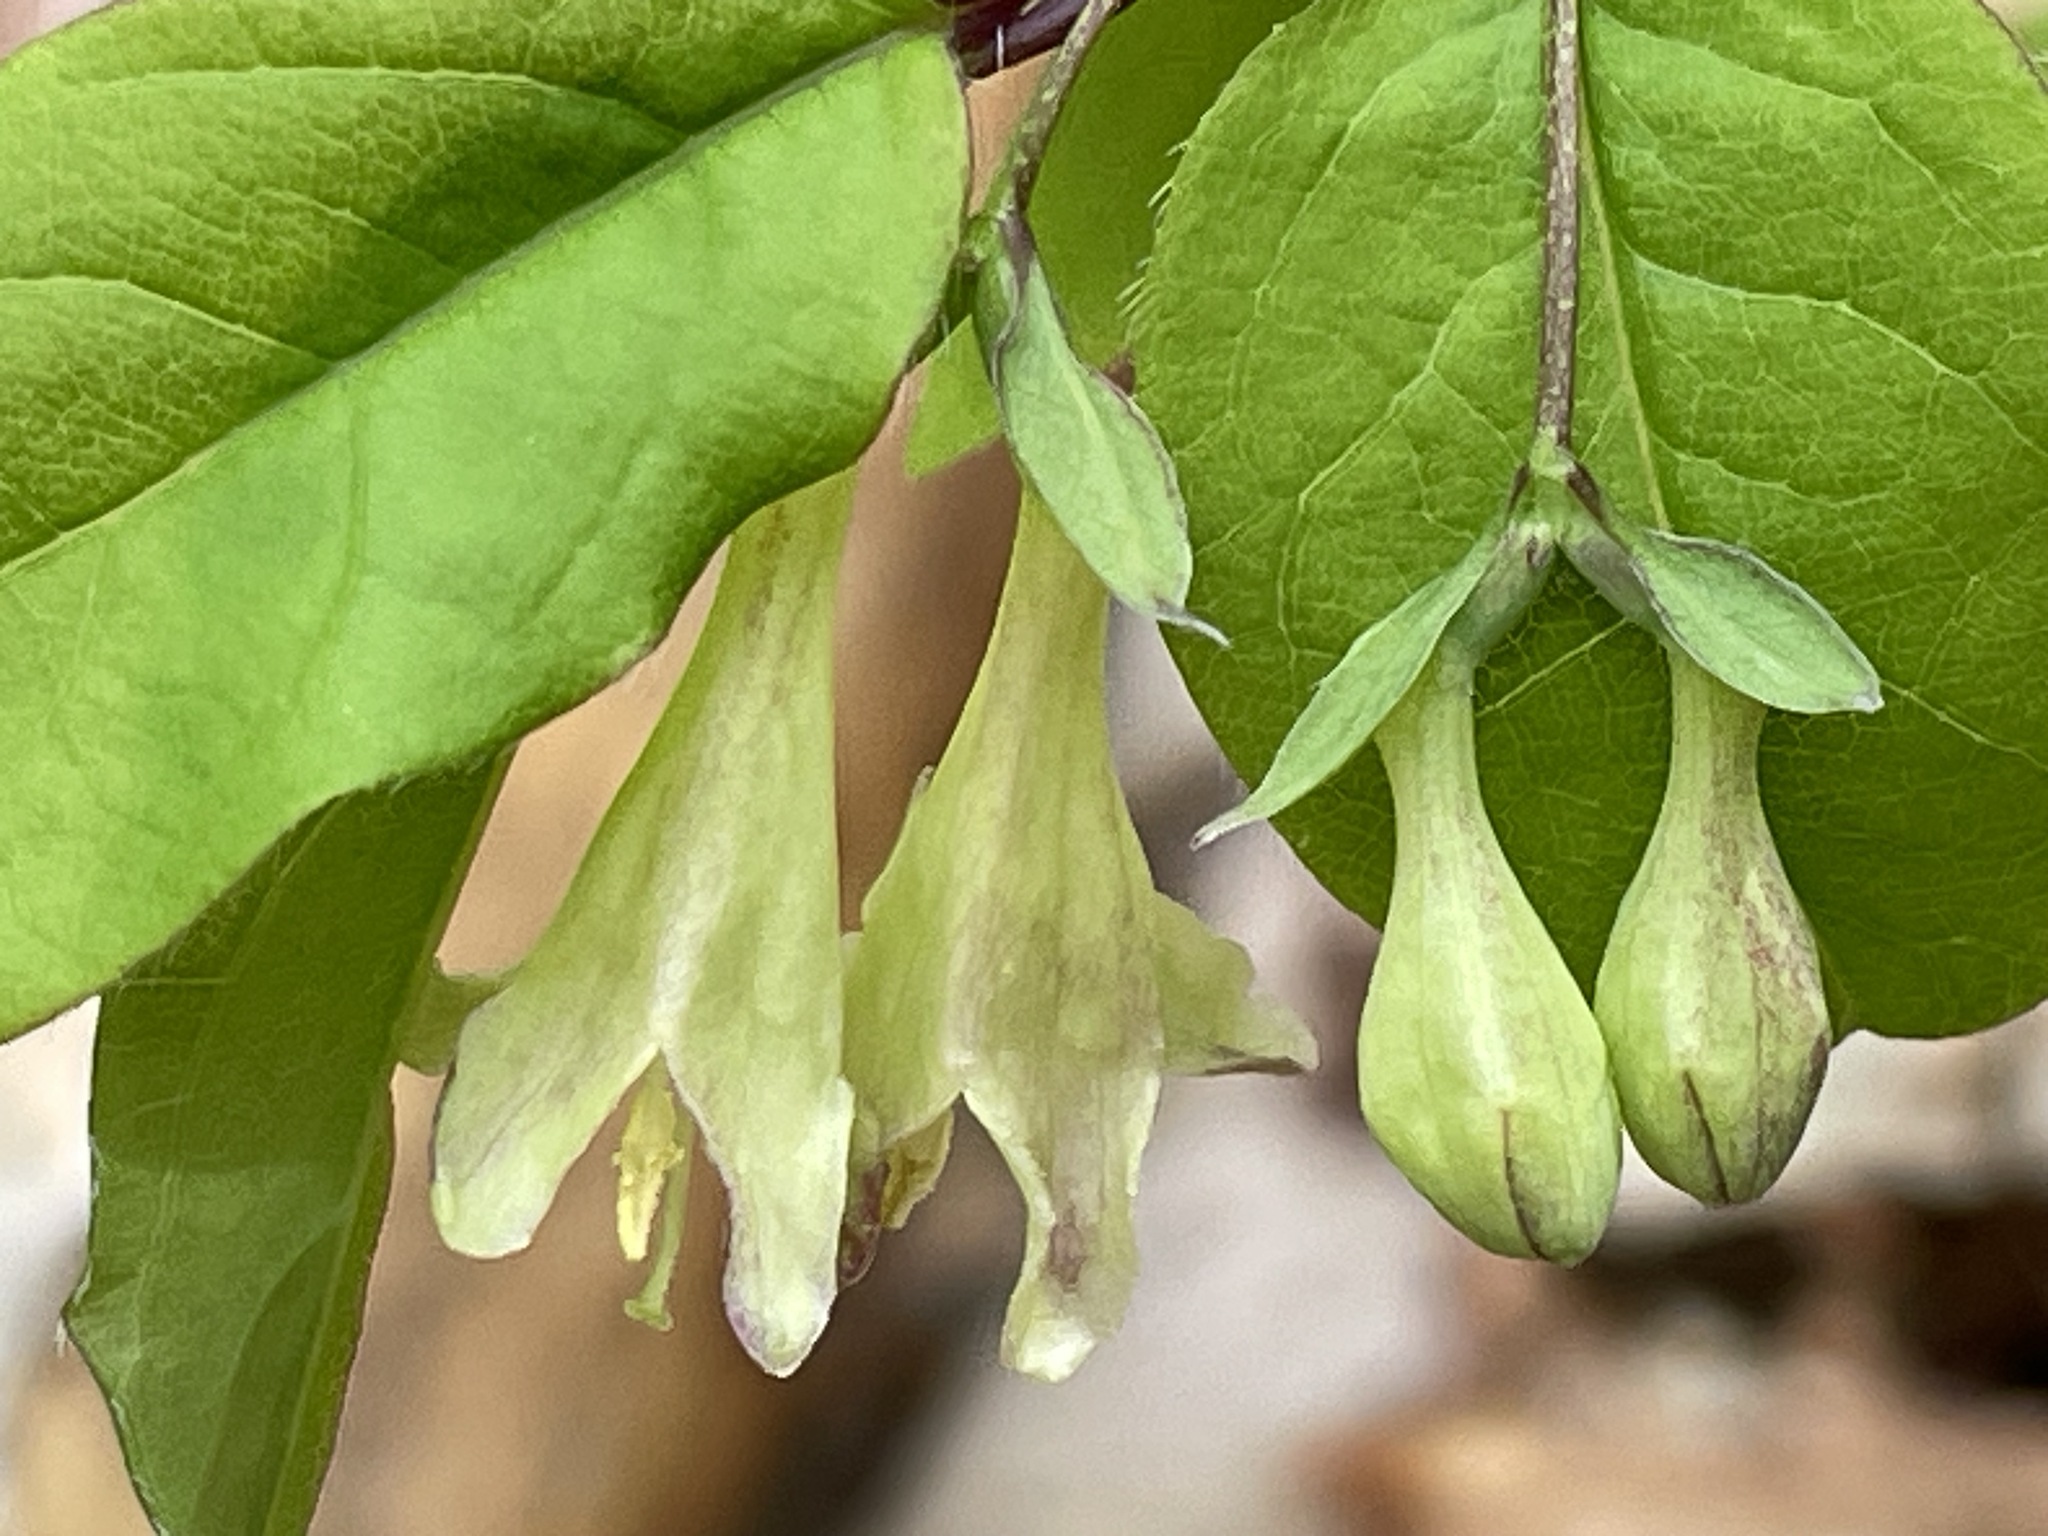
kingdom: Plantae
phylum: Tracheophyta
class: Magnoliopsida
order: Dipsacales
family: Caprifoliaceae
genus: Lonicera
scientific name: Lonicera canadensis
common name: American fly-honeysuckle
